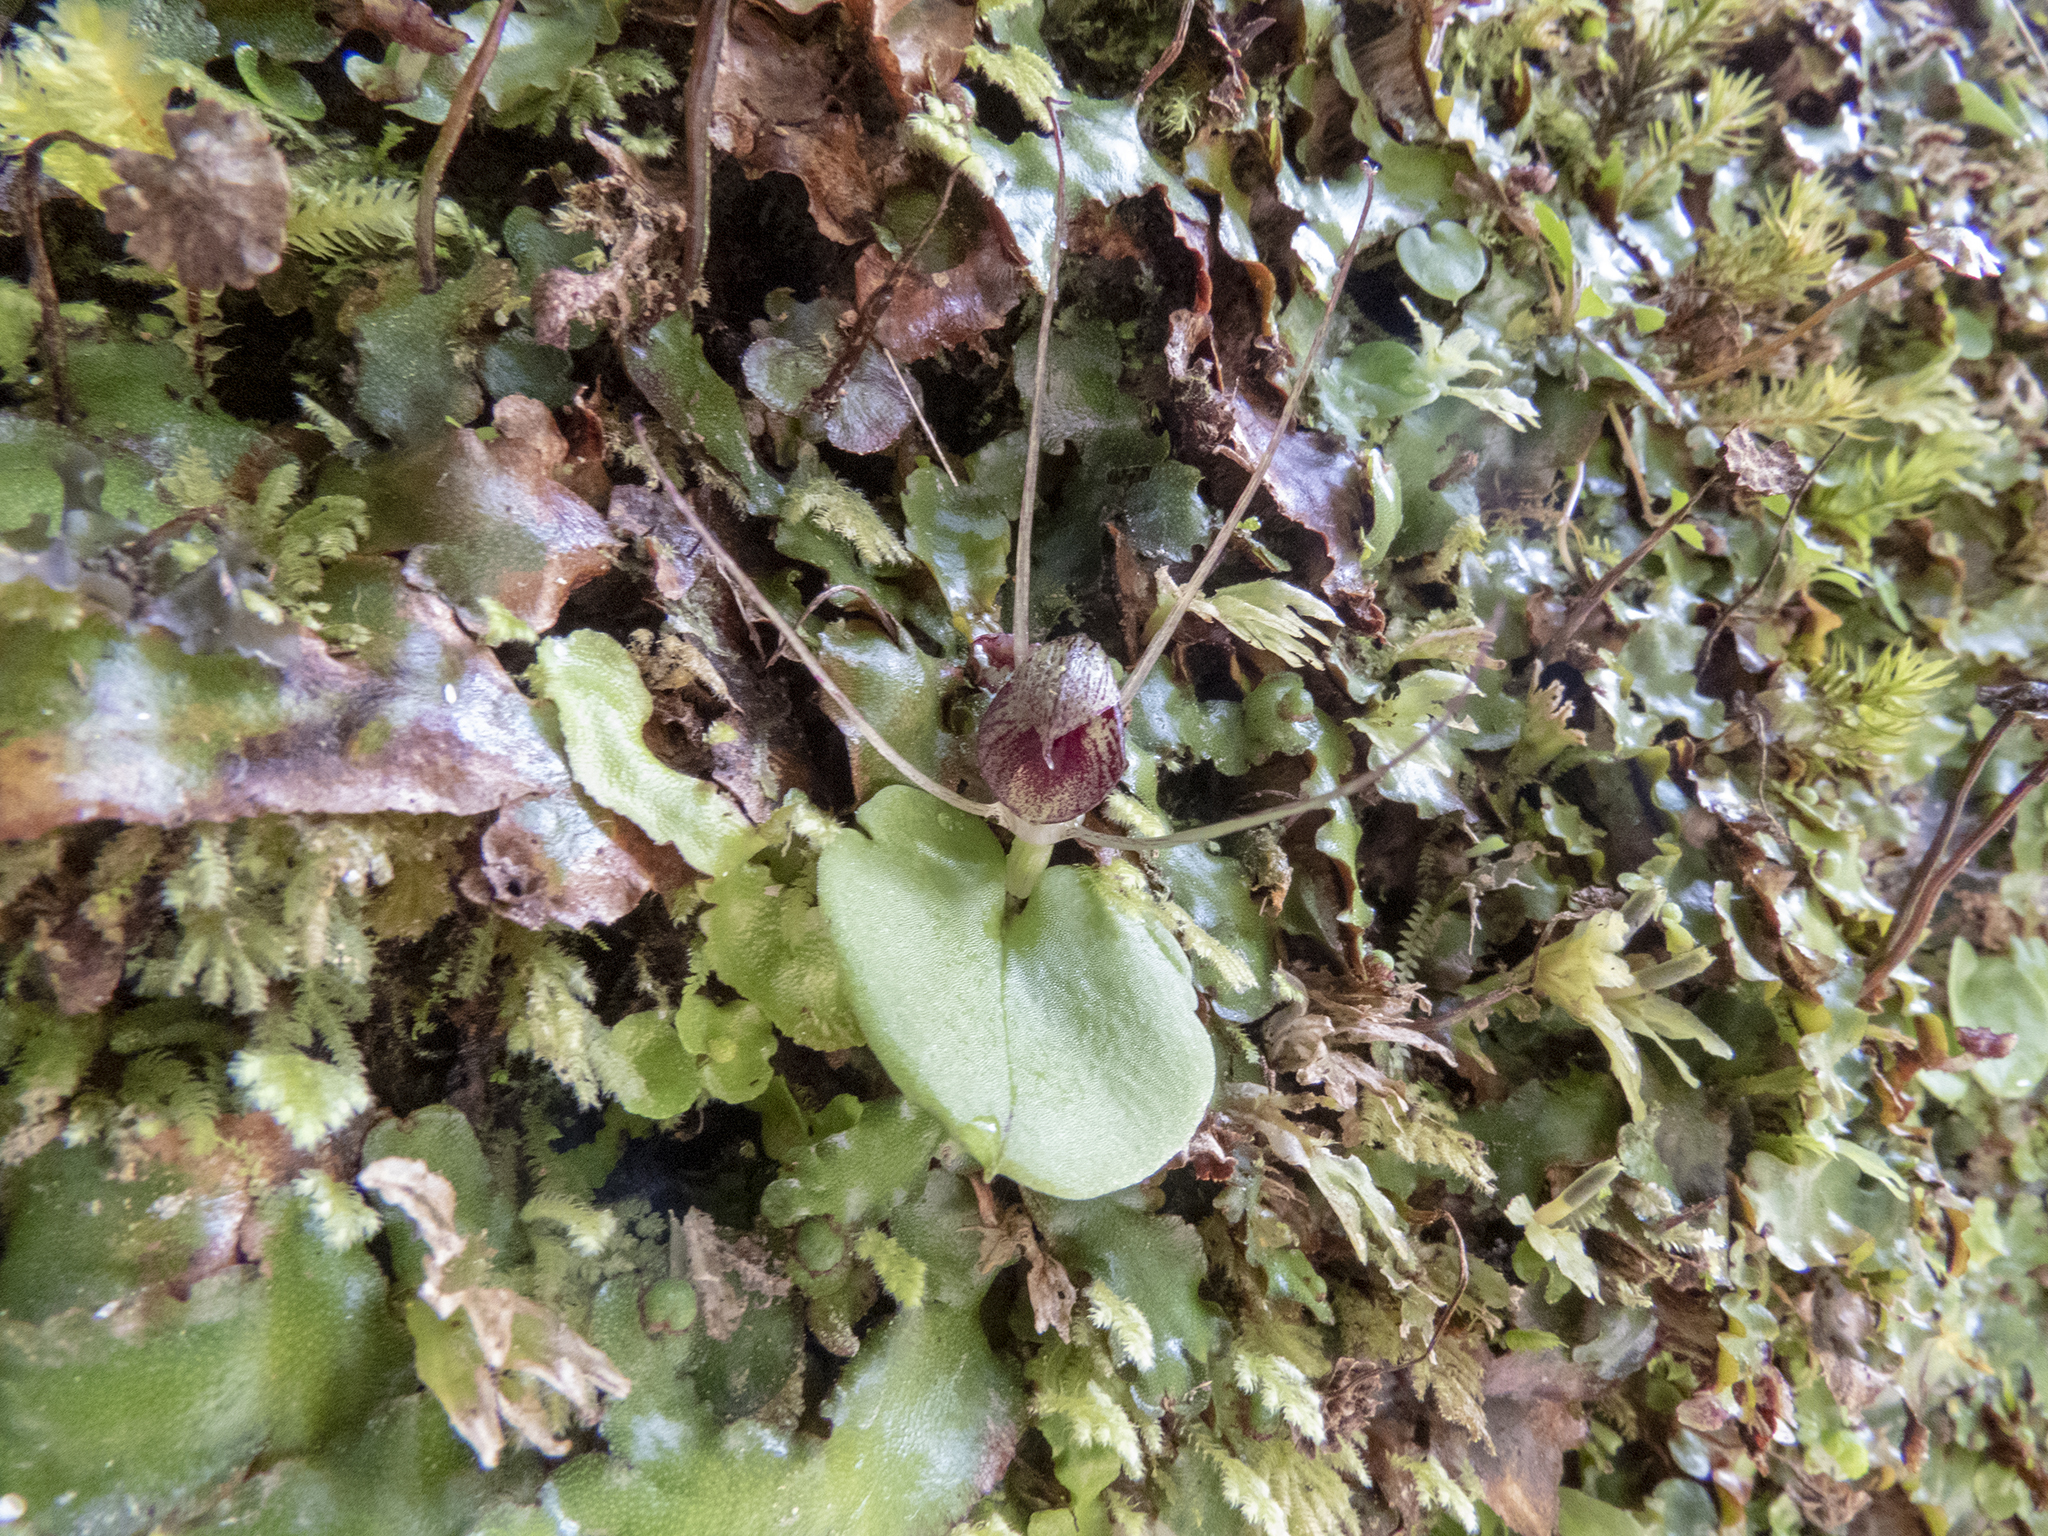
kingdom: Plantae
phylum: Tracheophyta
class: Liliopsida
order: Asparagales
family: Orchidaceae
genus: Corybas
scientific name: Corybas hatchii
